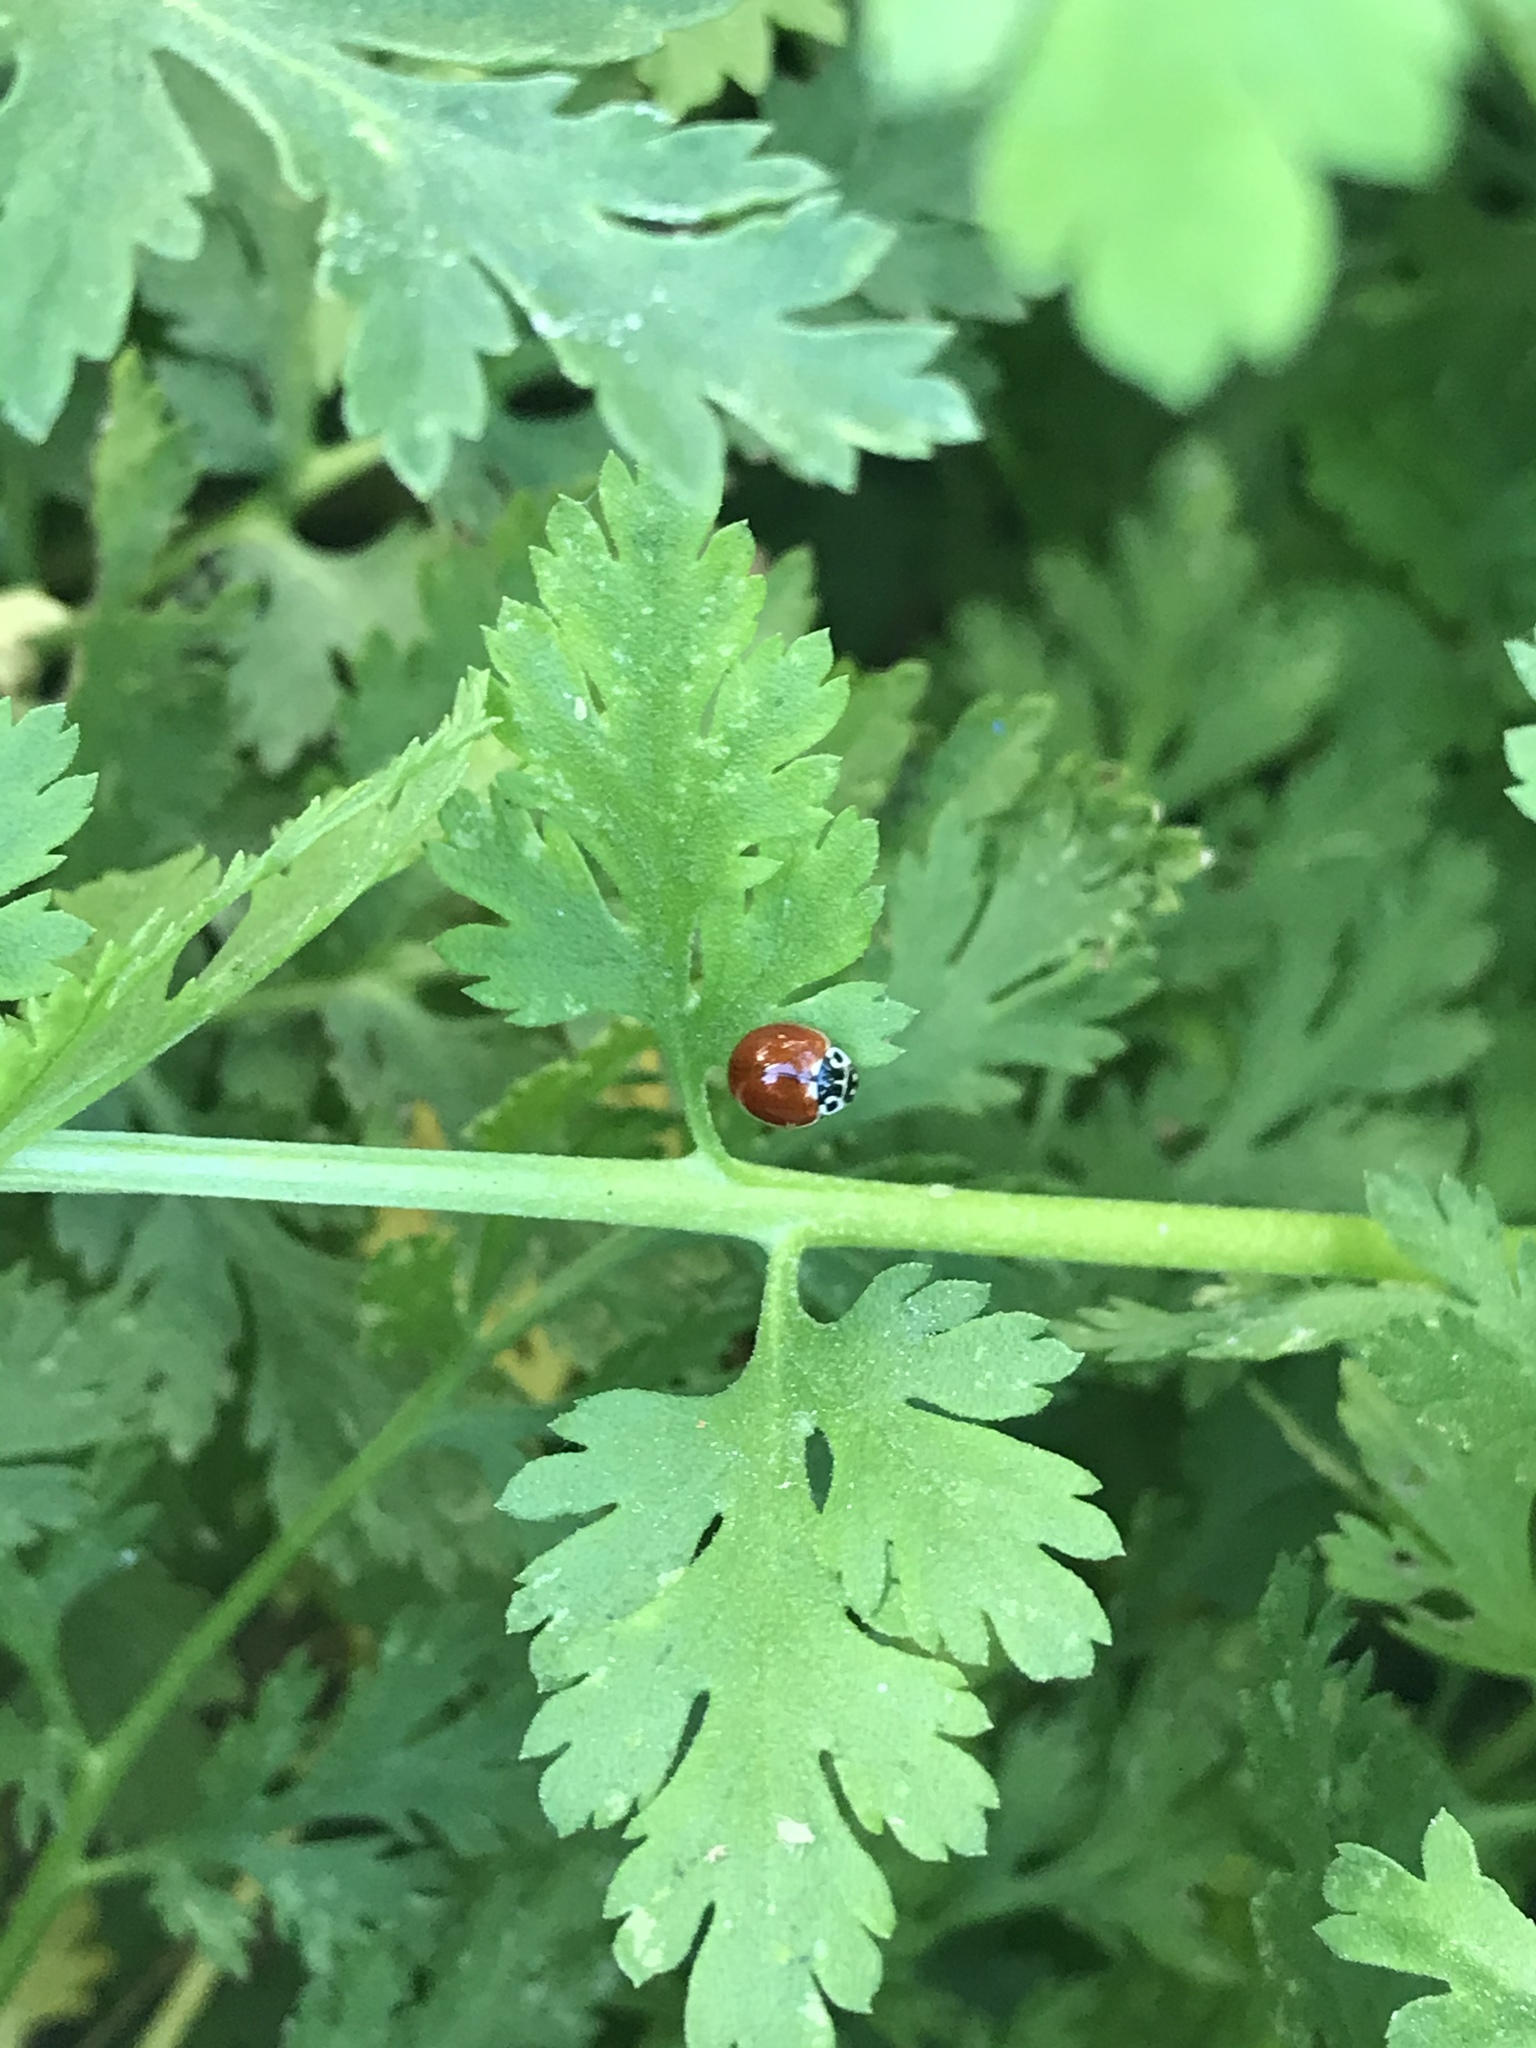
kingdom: Animalia
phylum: Arthropoda
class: Insecta
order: Coleoptera
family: Coccinellidae
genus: Cycloneda
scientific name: Cycloneda polita
